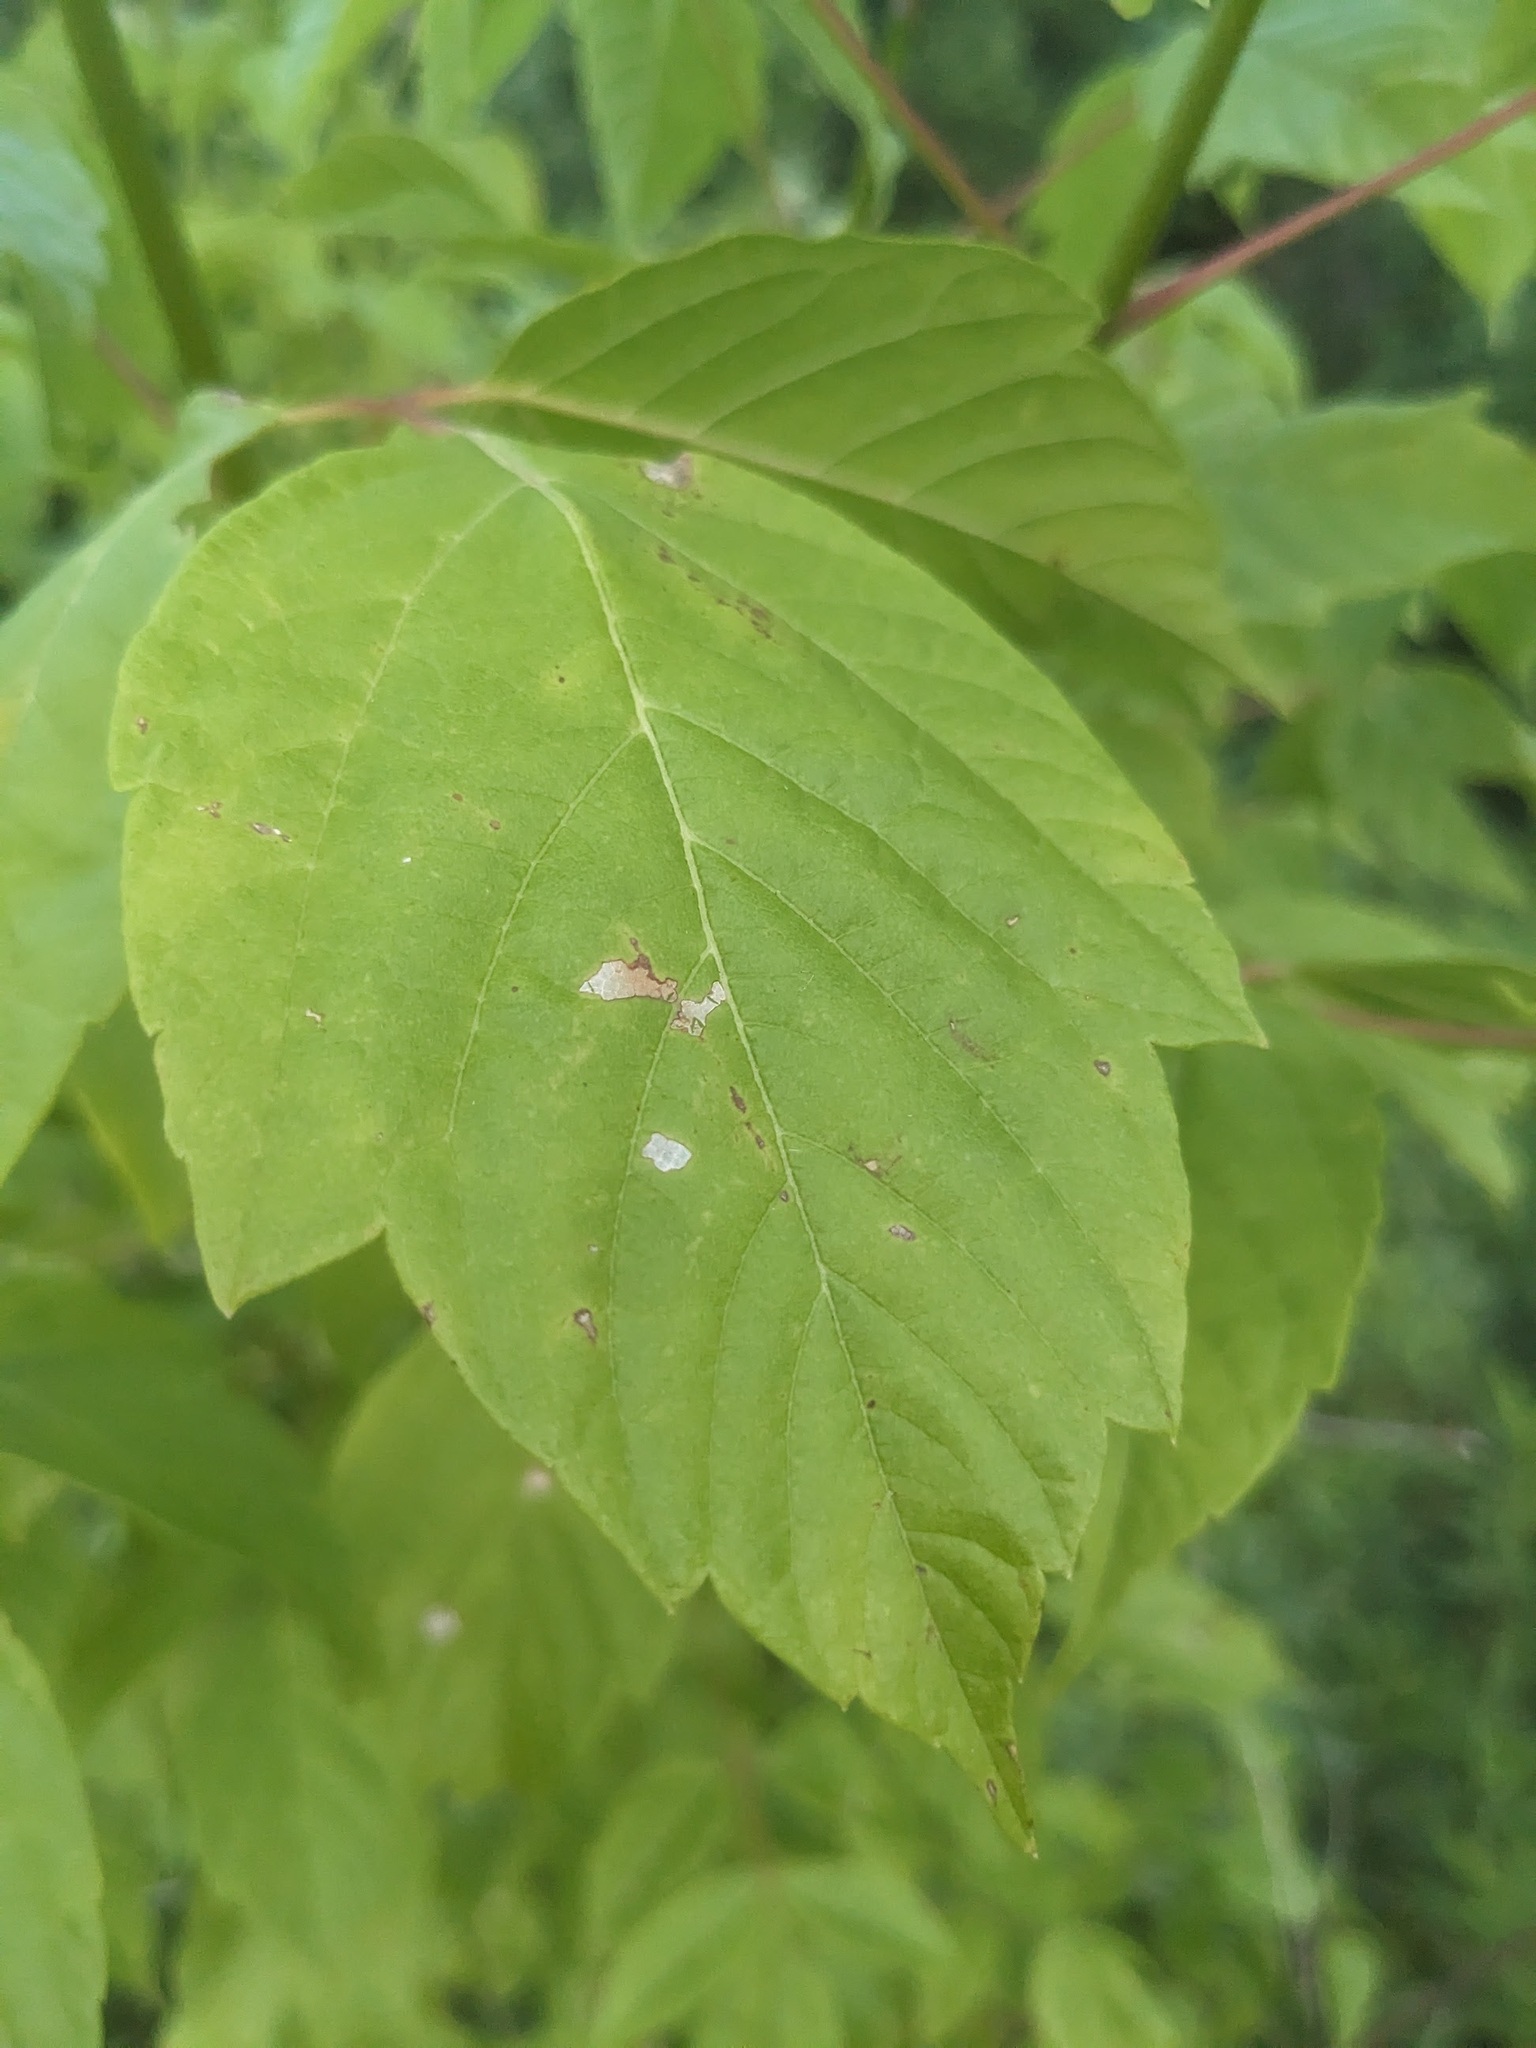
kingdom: Plantae
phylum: Tracheophyta
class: Magnoliopsida
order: Sapindales
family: Sapindaceae
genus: Acer
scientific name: Acer negundo
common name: Ashleaf maple
